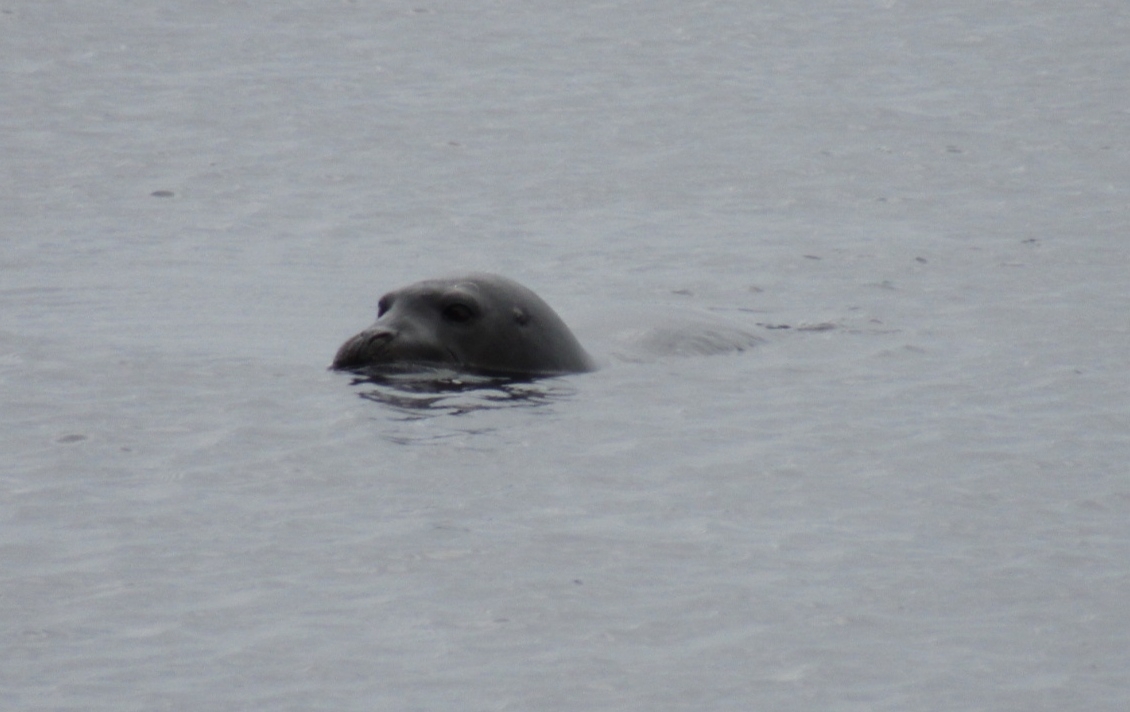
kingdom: Animalia
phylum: Chordata
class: Mammalia
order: Carnivora
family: Phocidae
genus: Erignathus
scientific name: Erignathus barbatus
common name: Bearded seal
